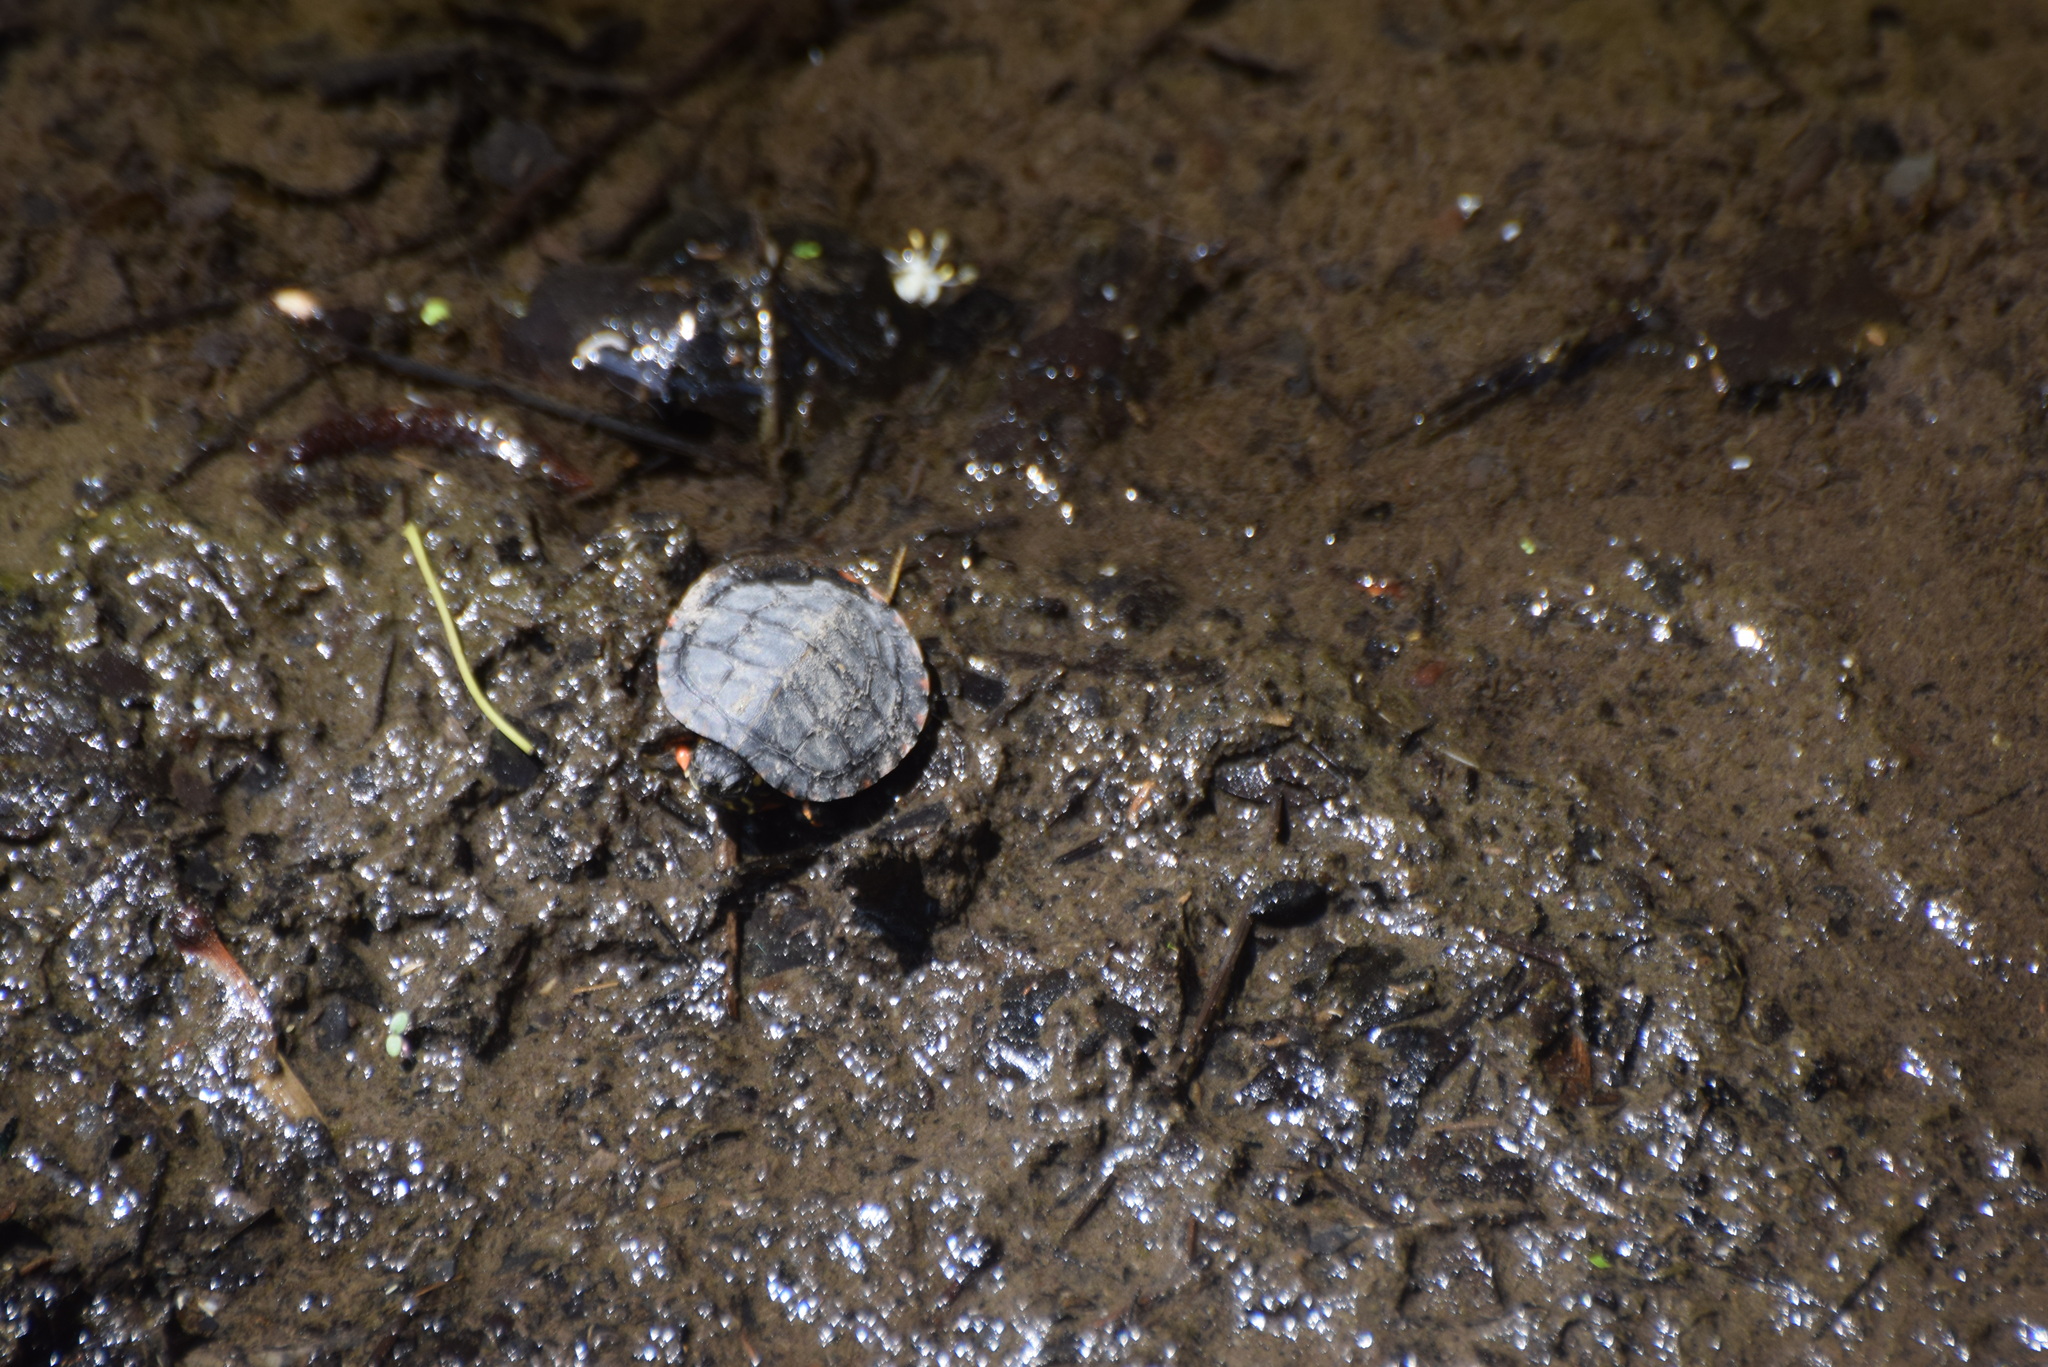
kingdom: Animalia
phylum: Chordata
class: Testudines
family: Emydidae
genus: Chrysemys
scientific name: Chrysemys picta
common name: Painted turtle
